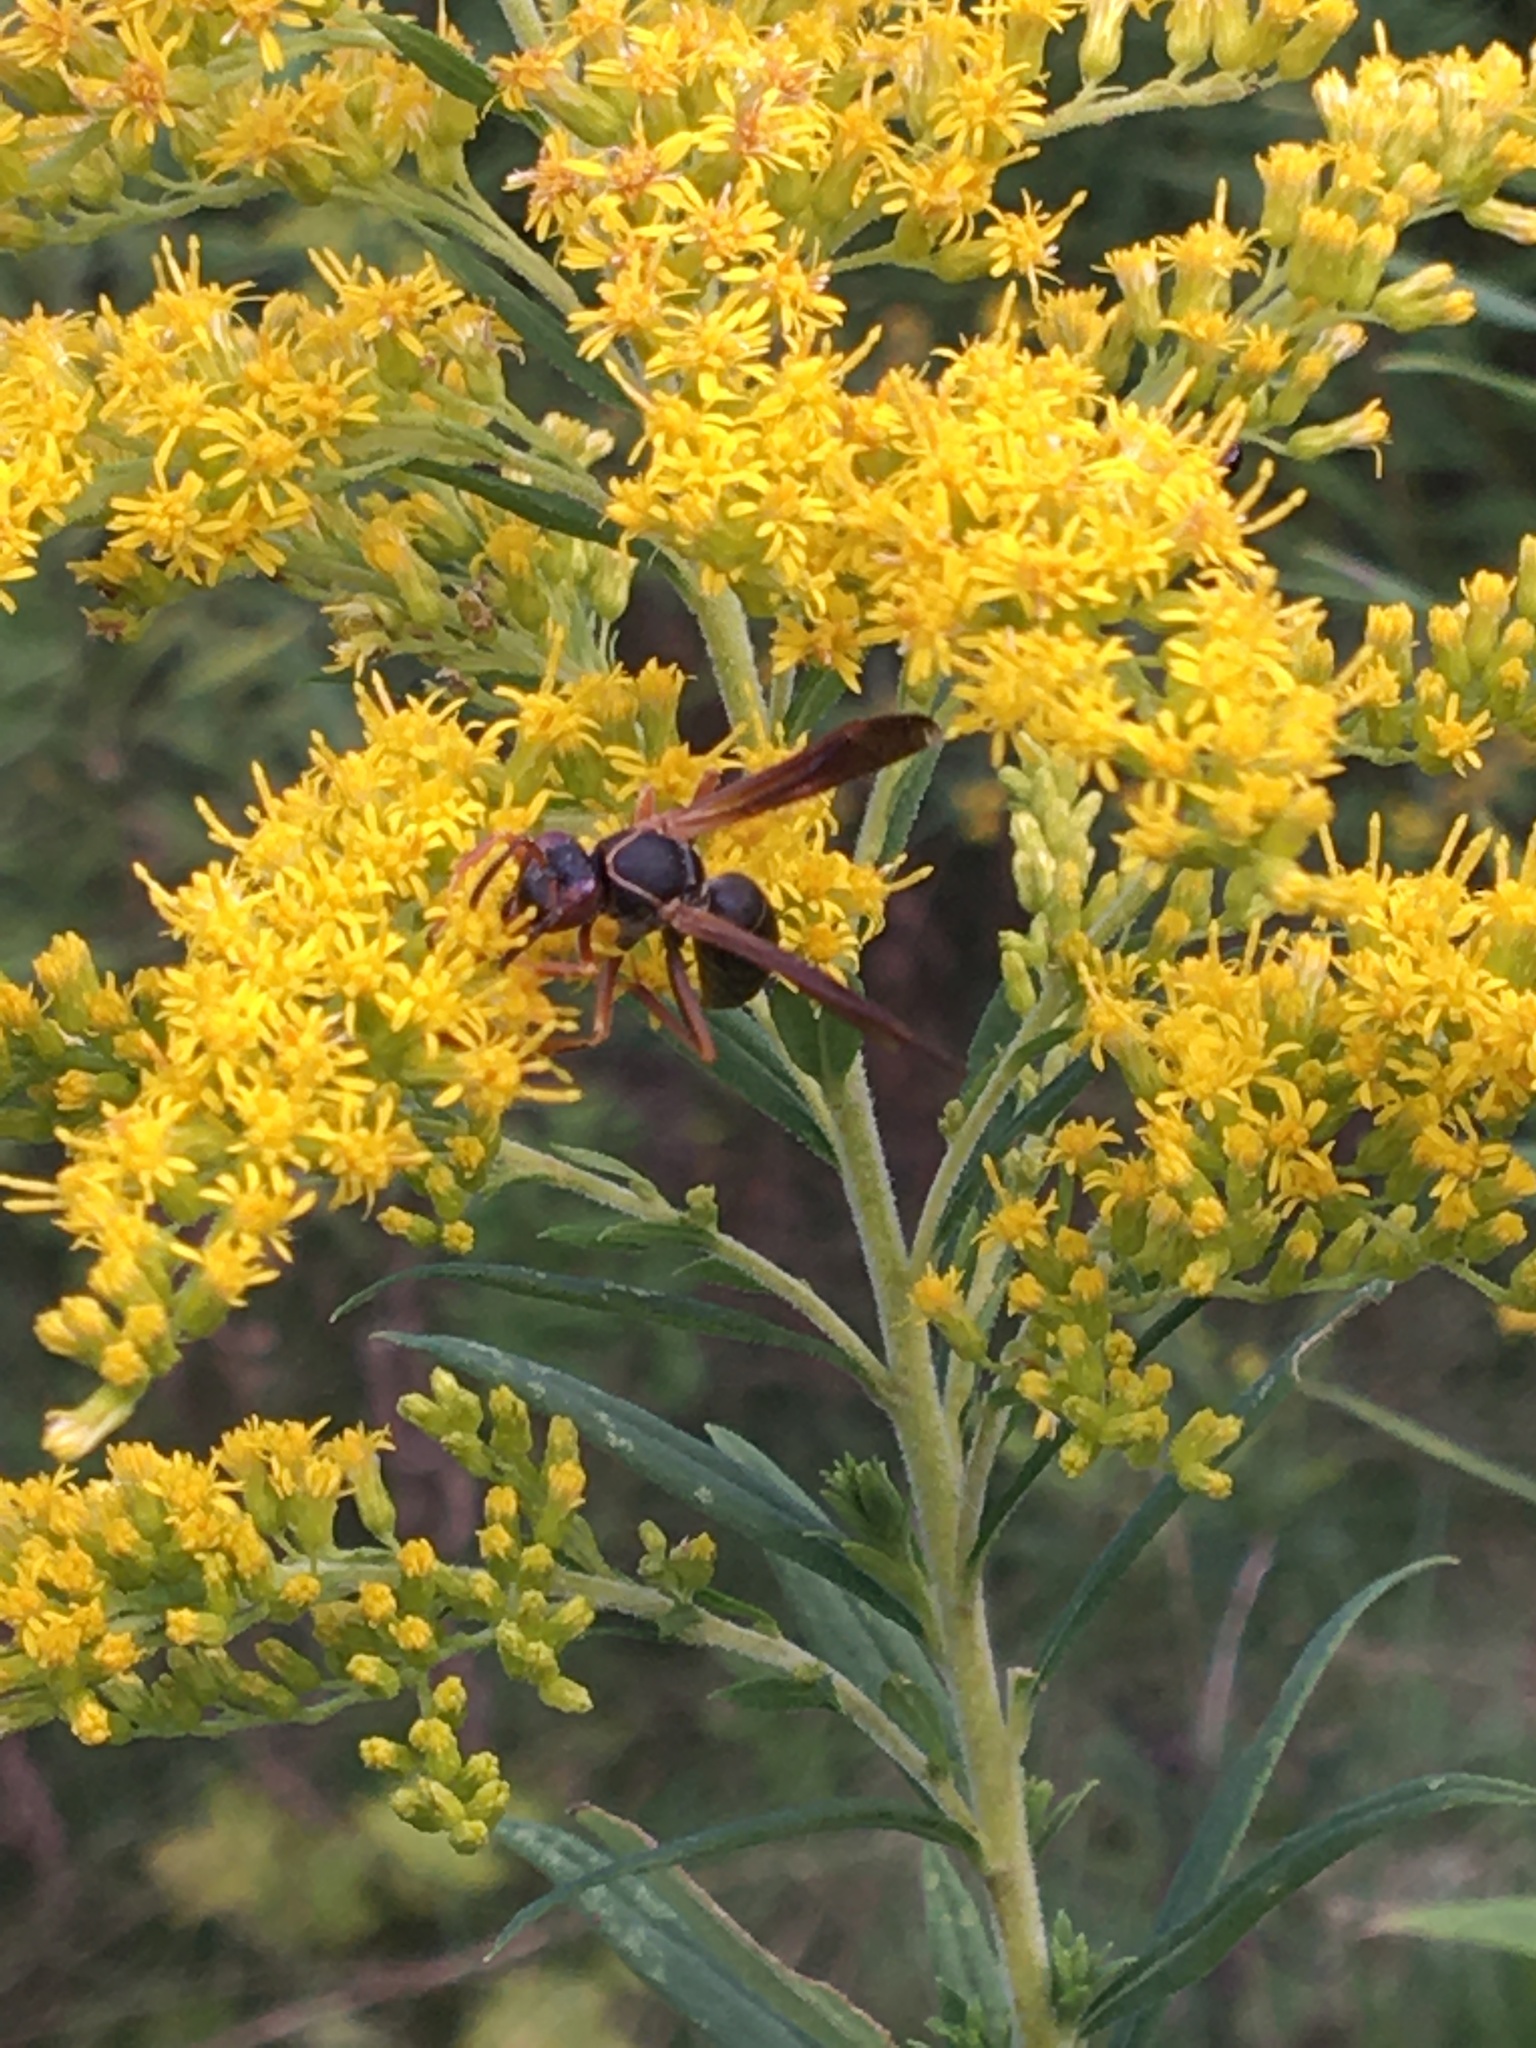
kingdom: Animalia
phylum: Arthropoda
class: Insecta
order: Hymenoptera
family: Eumenidae
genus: Polistes
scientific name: Polistes fuscatus
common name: Dark paper wasp
